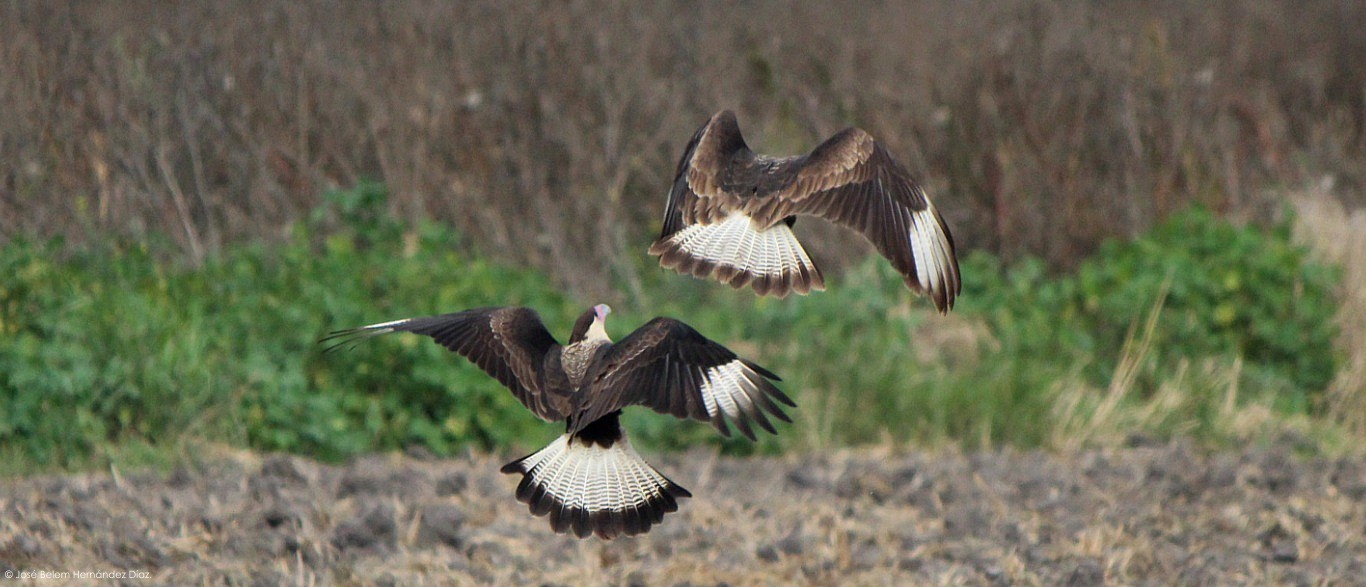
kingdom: Animalia
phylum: Chordata
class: Aves
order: Falconiformes
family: Falconidae
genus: Caracara
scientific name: Caracara plancus
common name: Southern caracara
